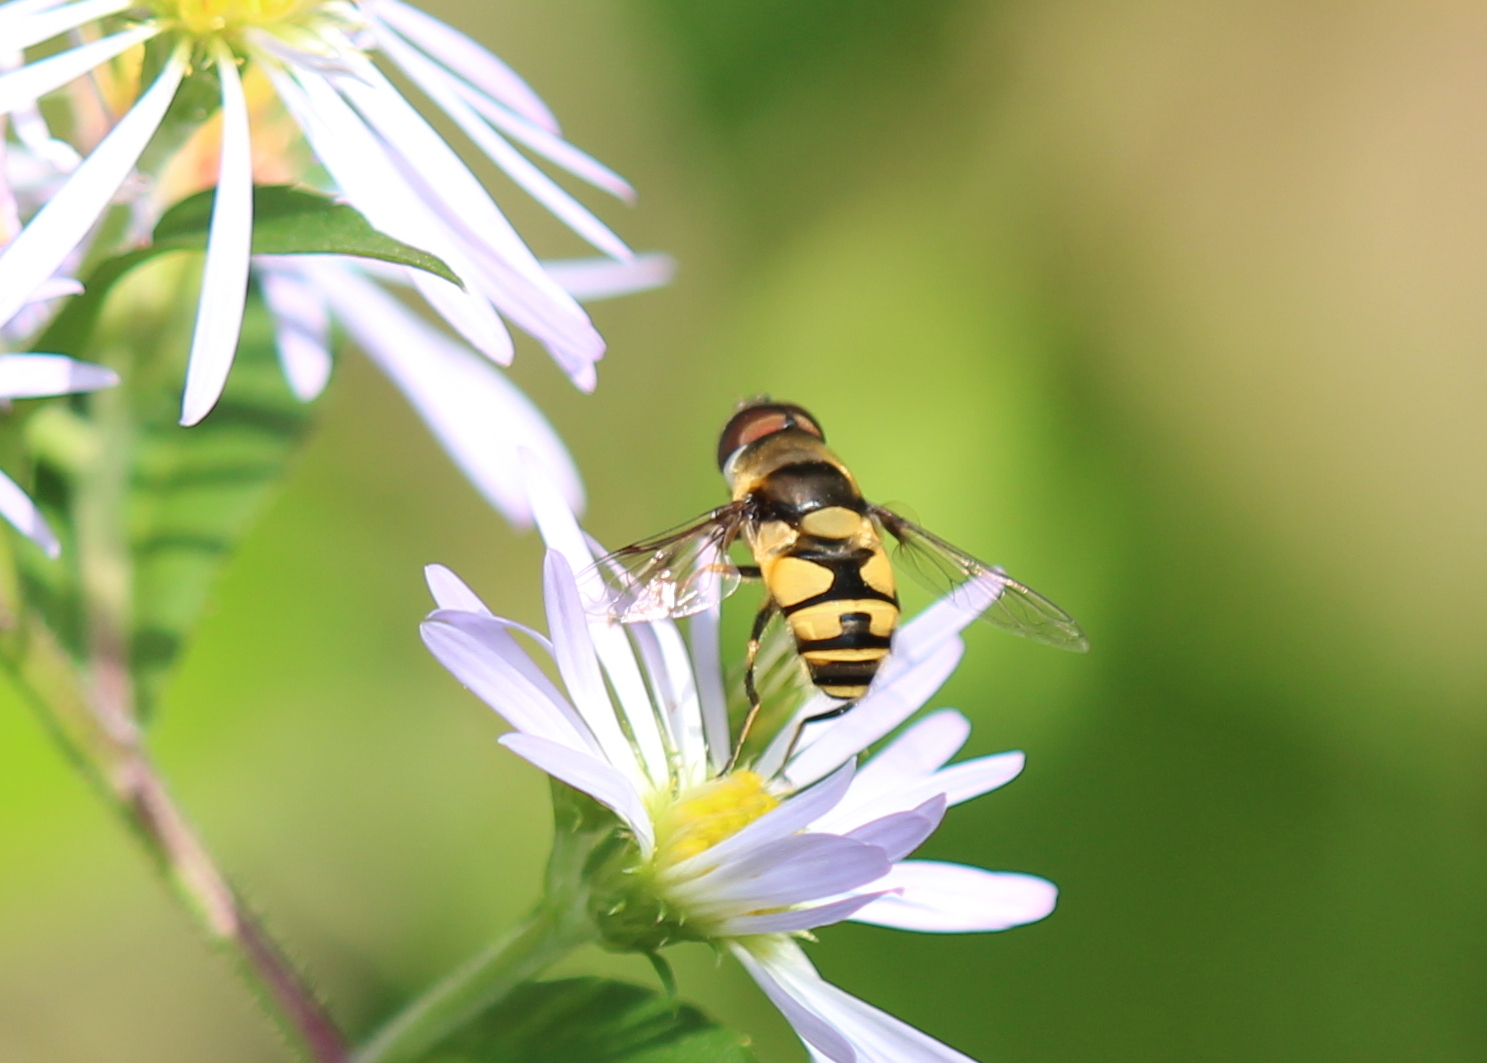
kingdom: Animalia
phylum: Arthropoda
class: Insecta
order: Diptera
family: Syrphidae
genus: Eristalis
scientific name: Eristalis transversa
